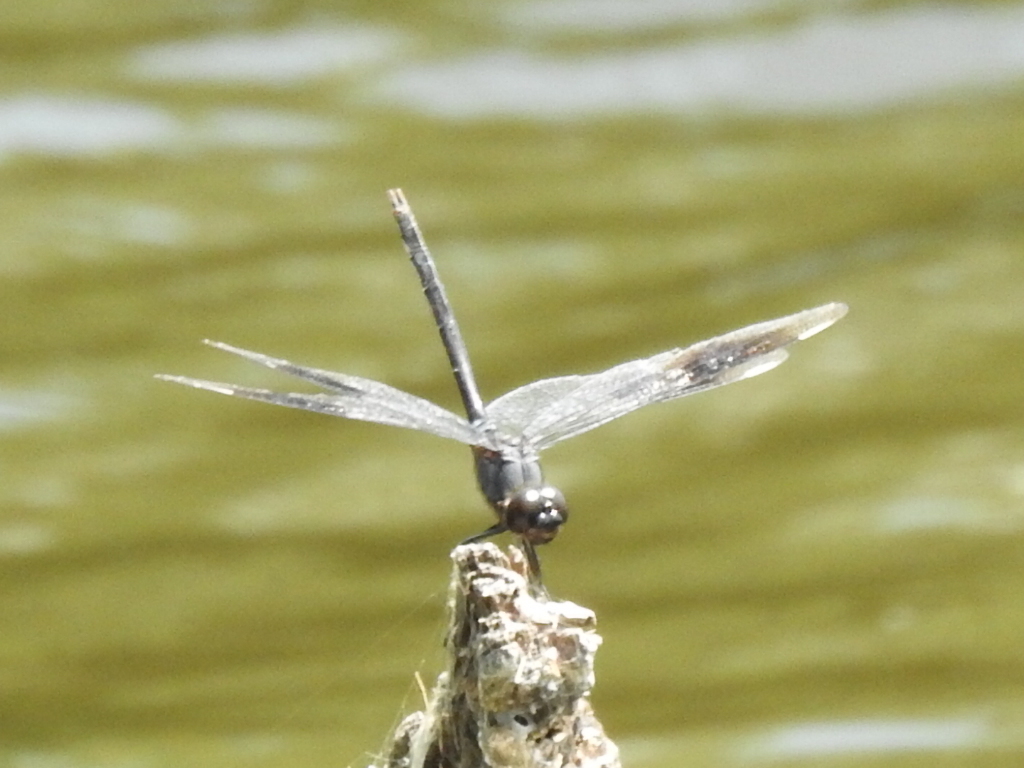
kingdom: Animalia
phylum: Arthropoda
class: Insecta
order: Odonata
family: Libellulidae
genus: Brachymesia
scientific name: Brachymesia gravida
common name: Four-spotted pennant
